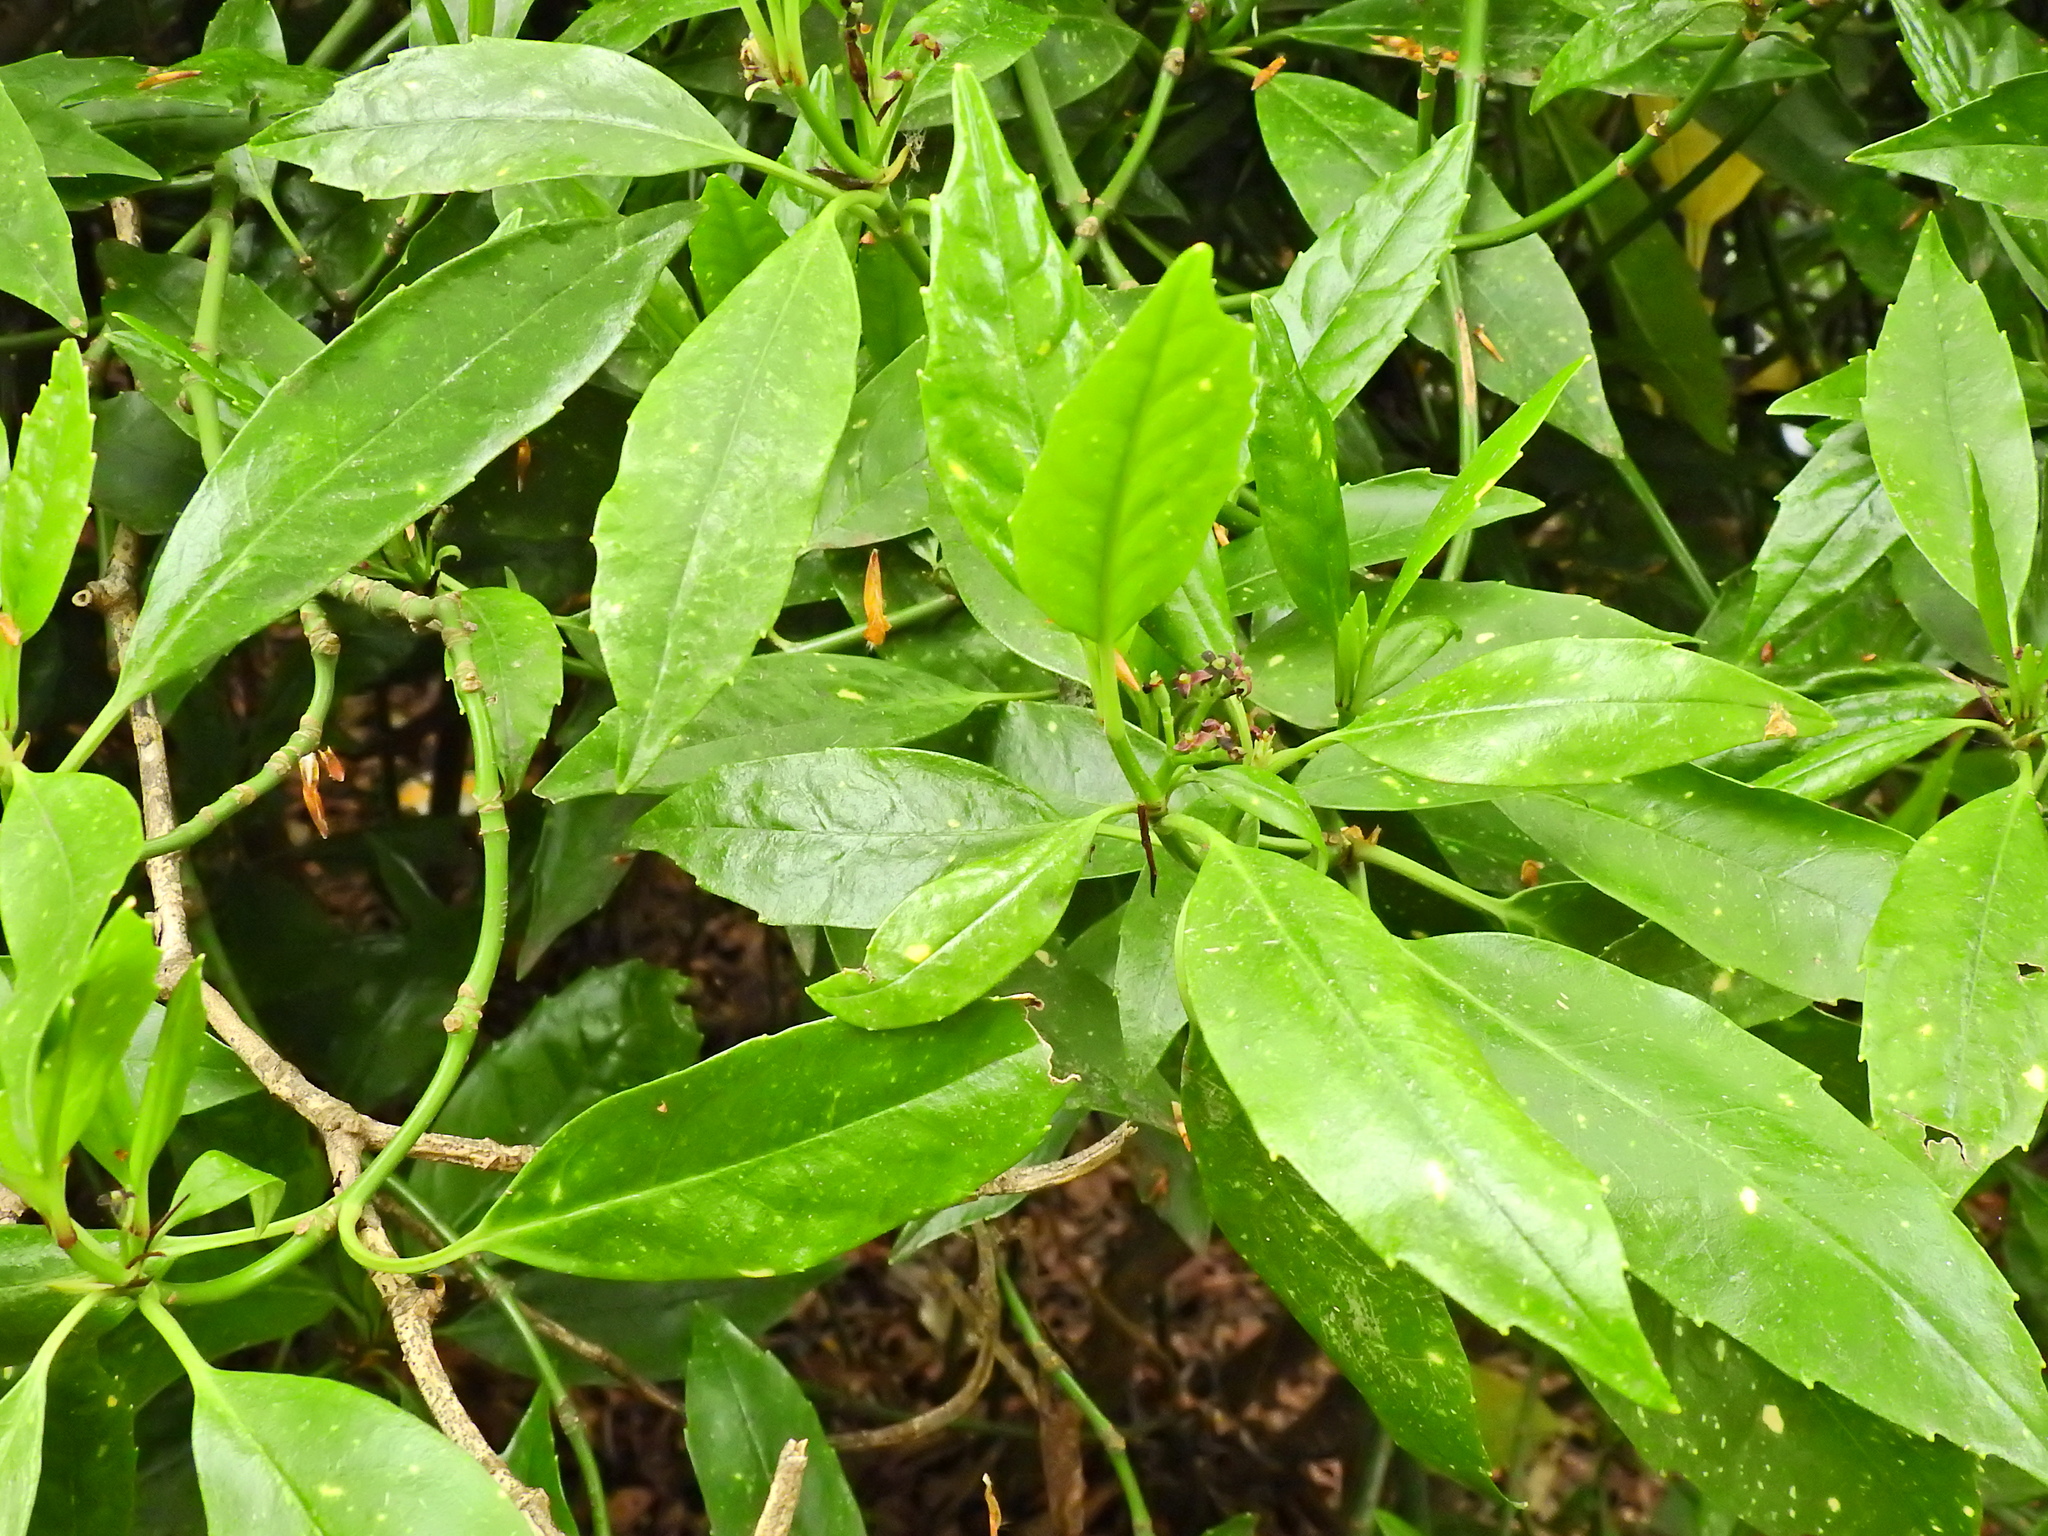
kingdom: Plantae
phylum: Tracheophyta
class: Magnoliopsida
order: Garryales
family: Garryaceae
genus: Aucuba
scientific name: Aucuba japonica
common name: Spotted-laurel
